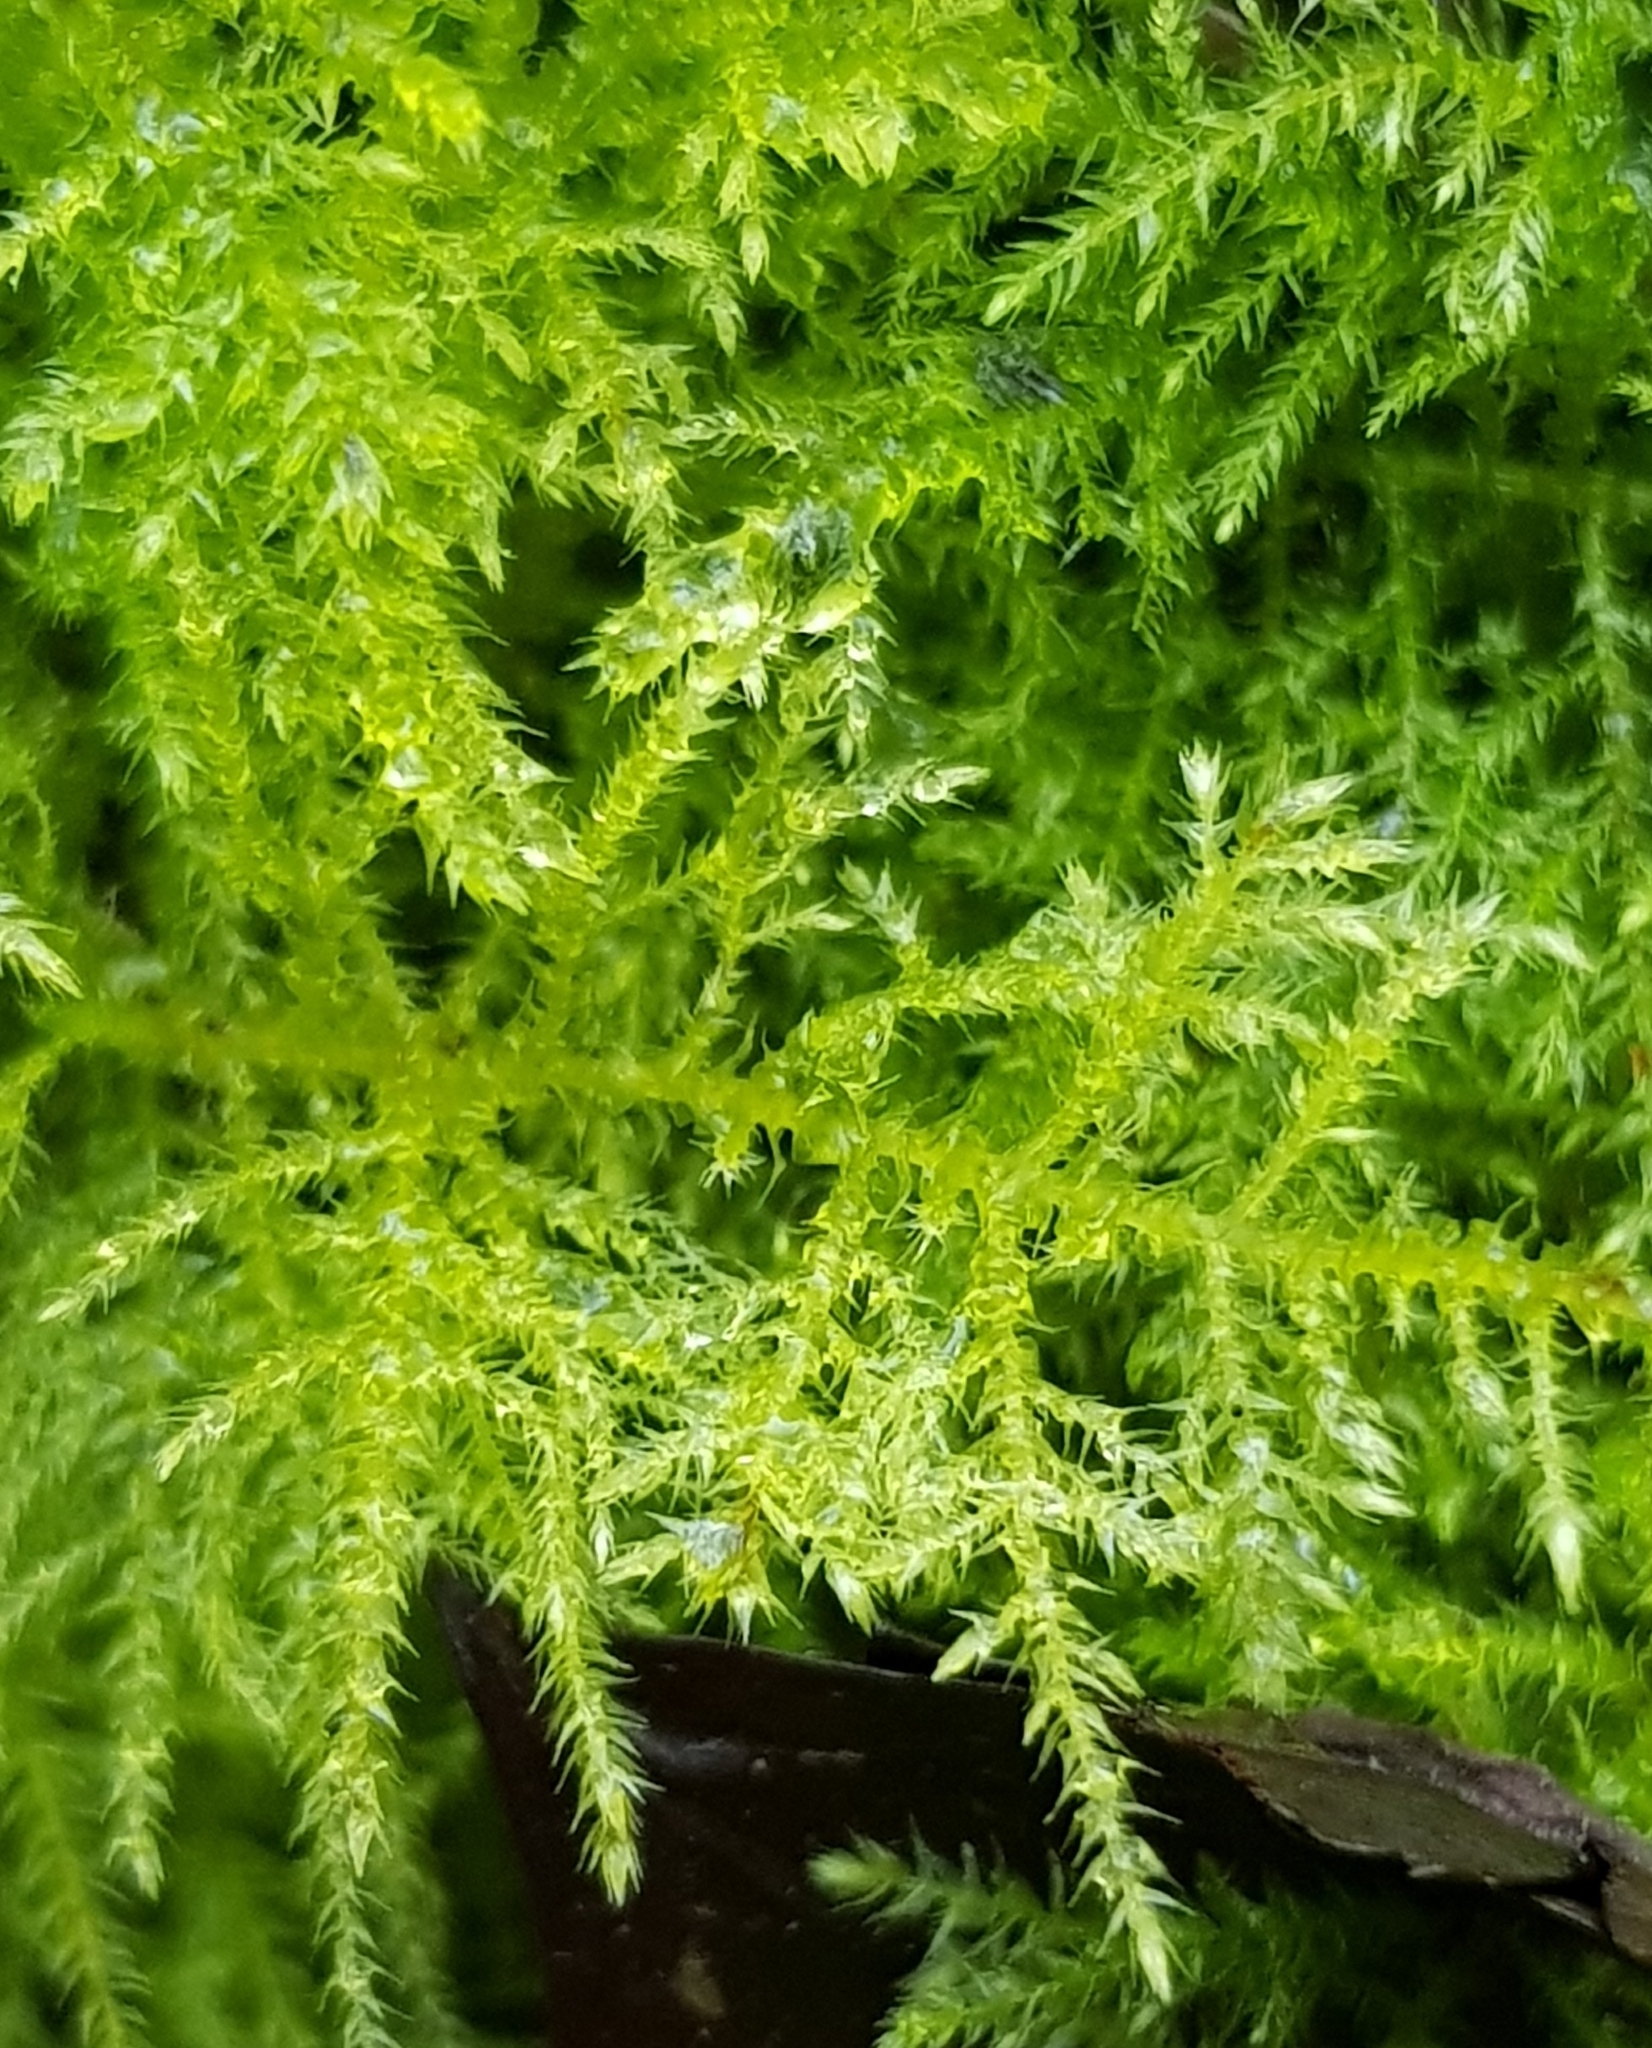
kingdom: Plantae
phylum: Bryophyta
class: Bryopsida
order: Hypnales
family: Brachytheciaceae
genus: Kindbergia
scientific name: Kindbergia praelonga
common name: Slender beaked moss
